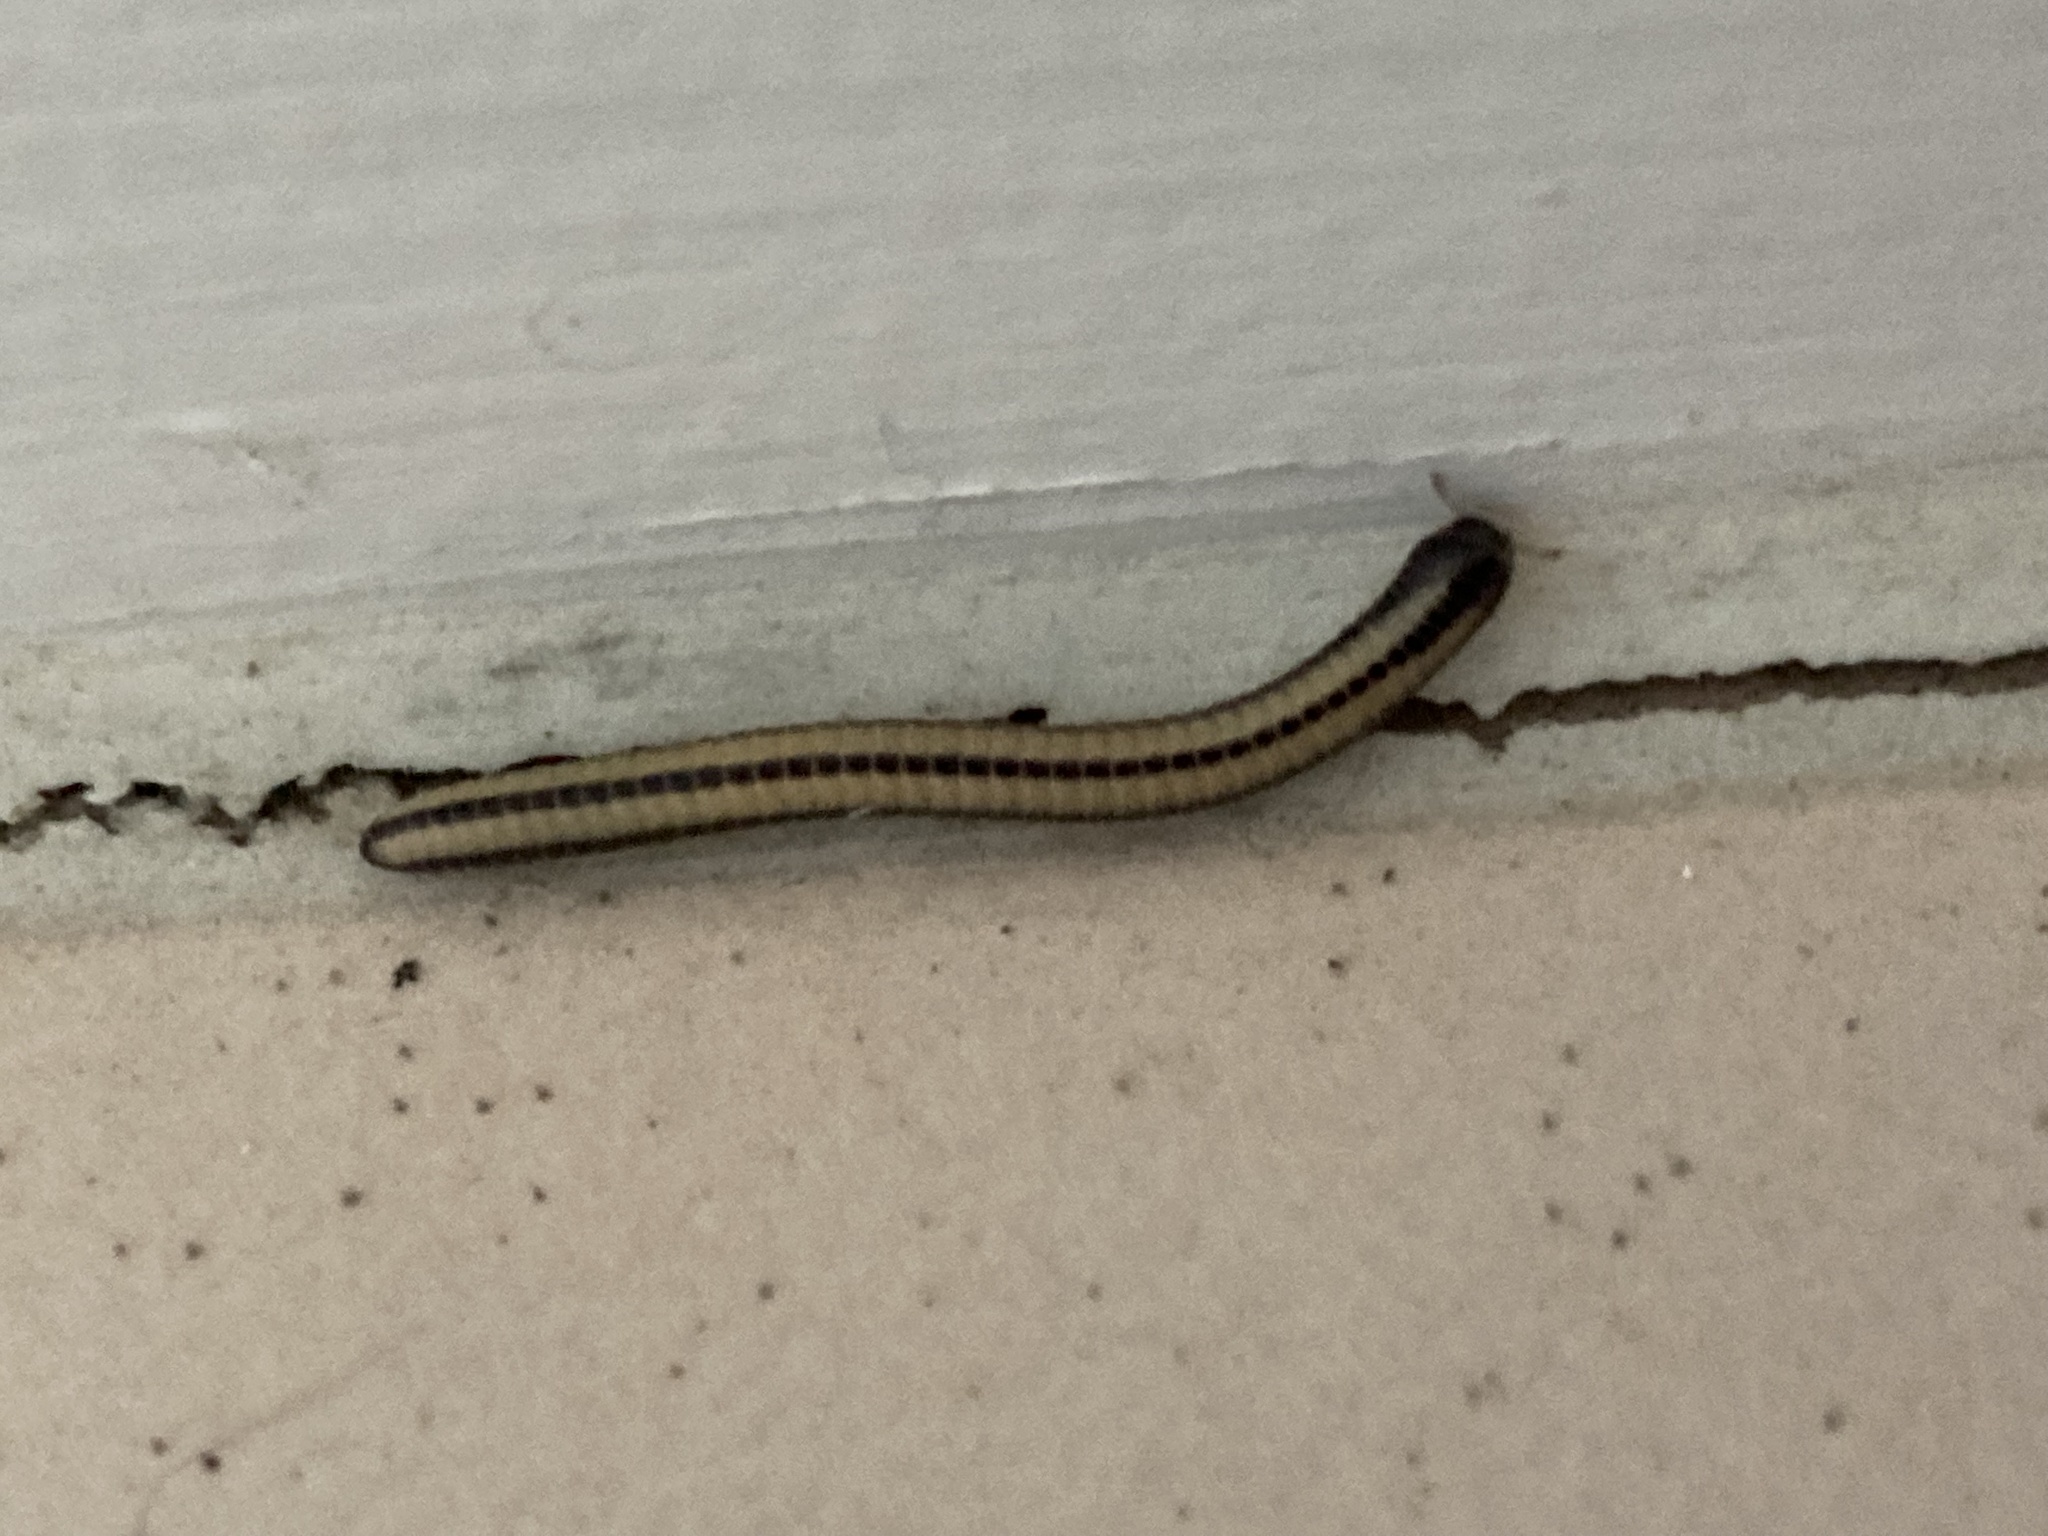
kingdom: Animalia
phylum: Arthropoda
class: Diplopoda
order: Spirobolida
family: Spirobolellidae
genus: Spirobolellus
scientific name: Spirobolellus immigrans
